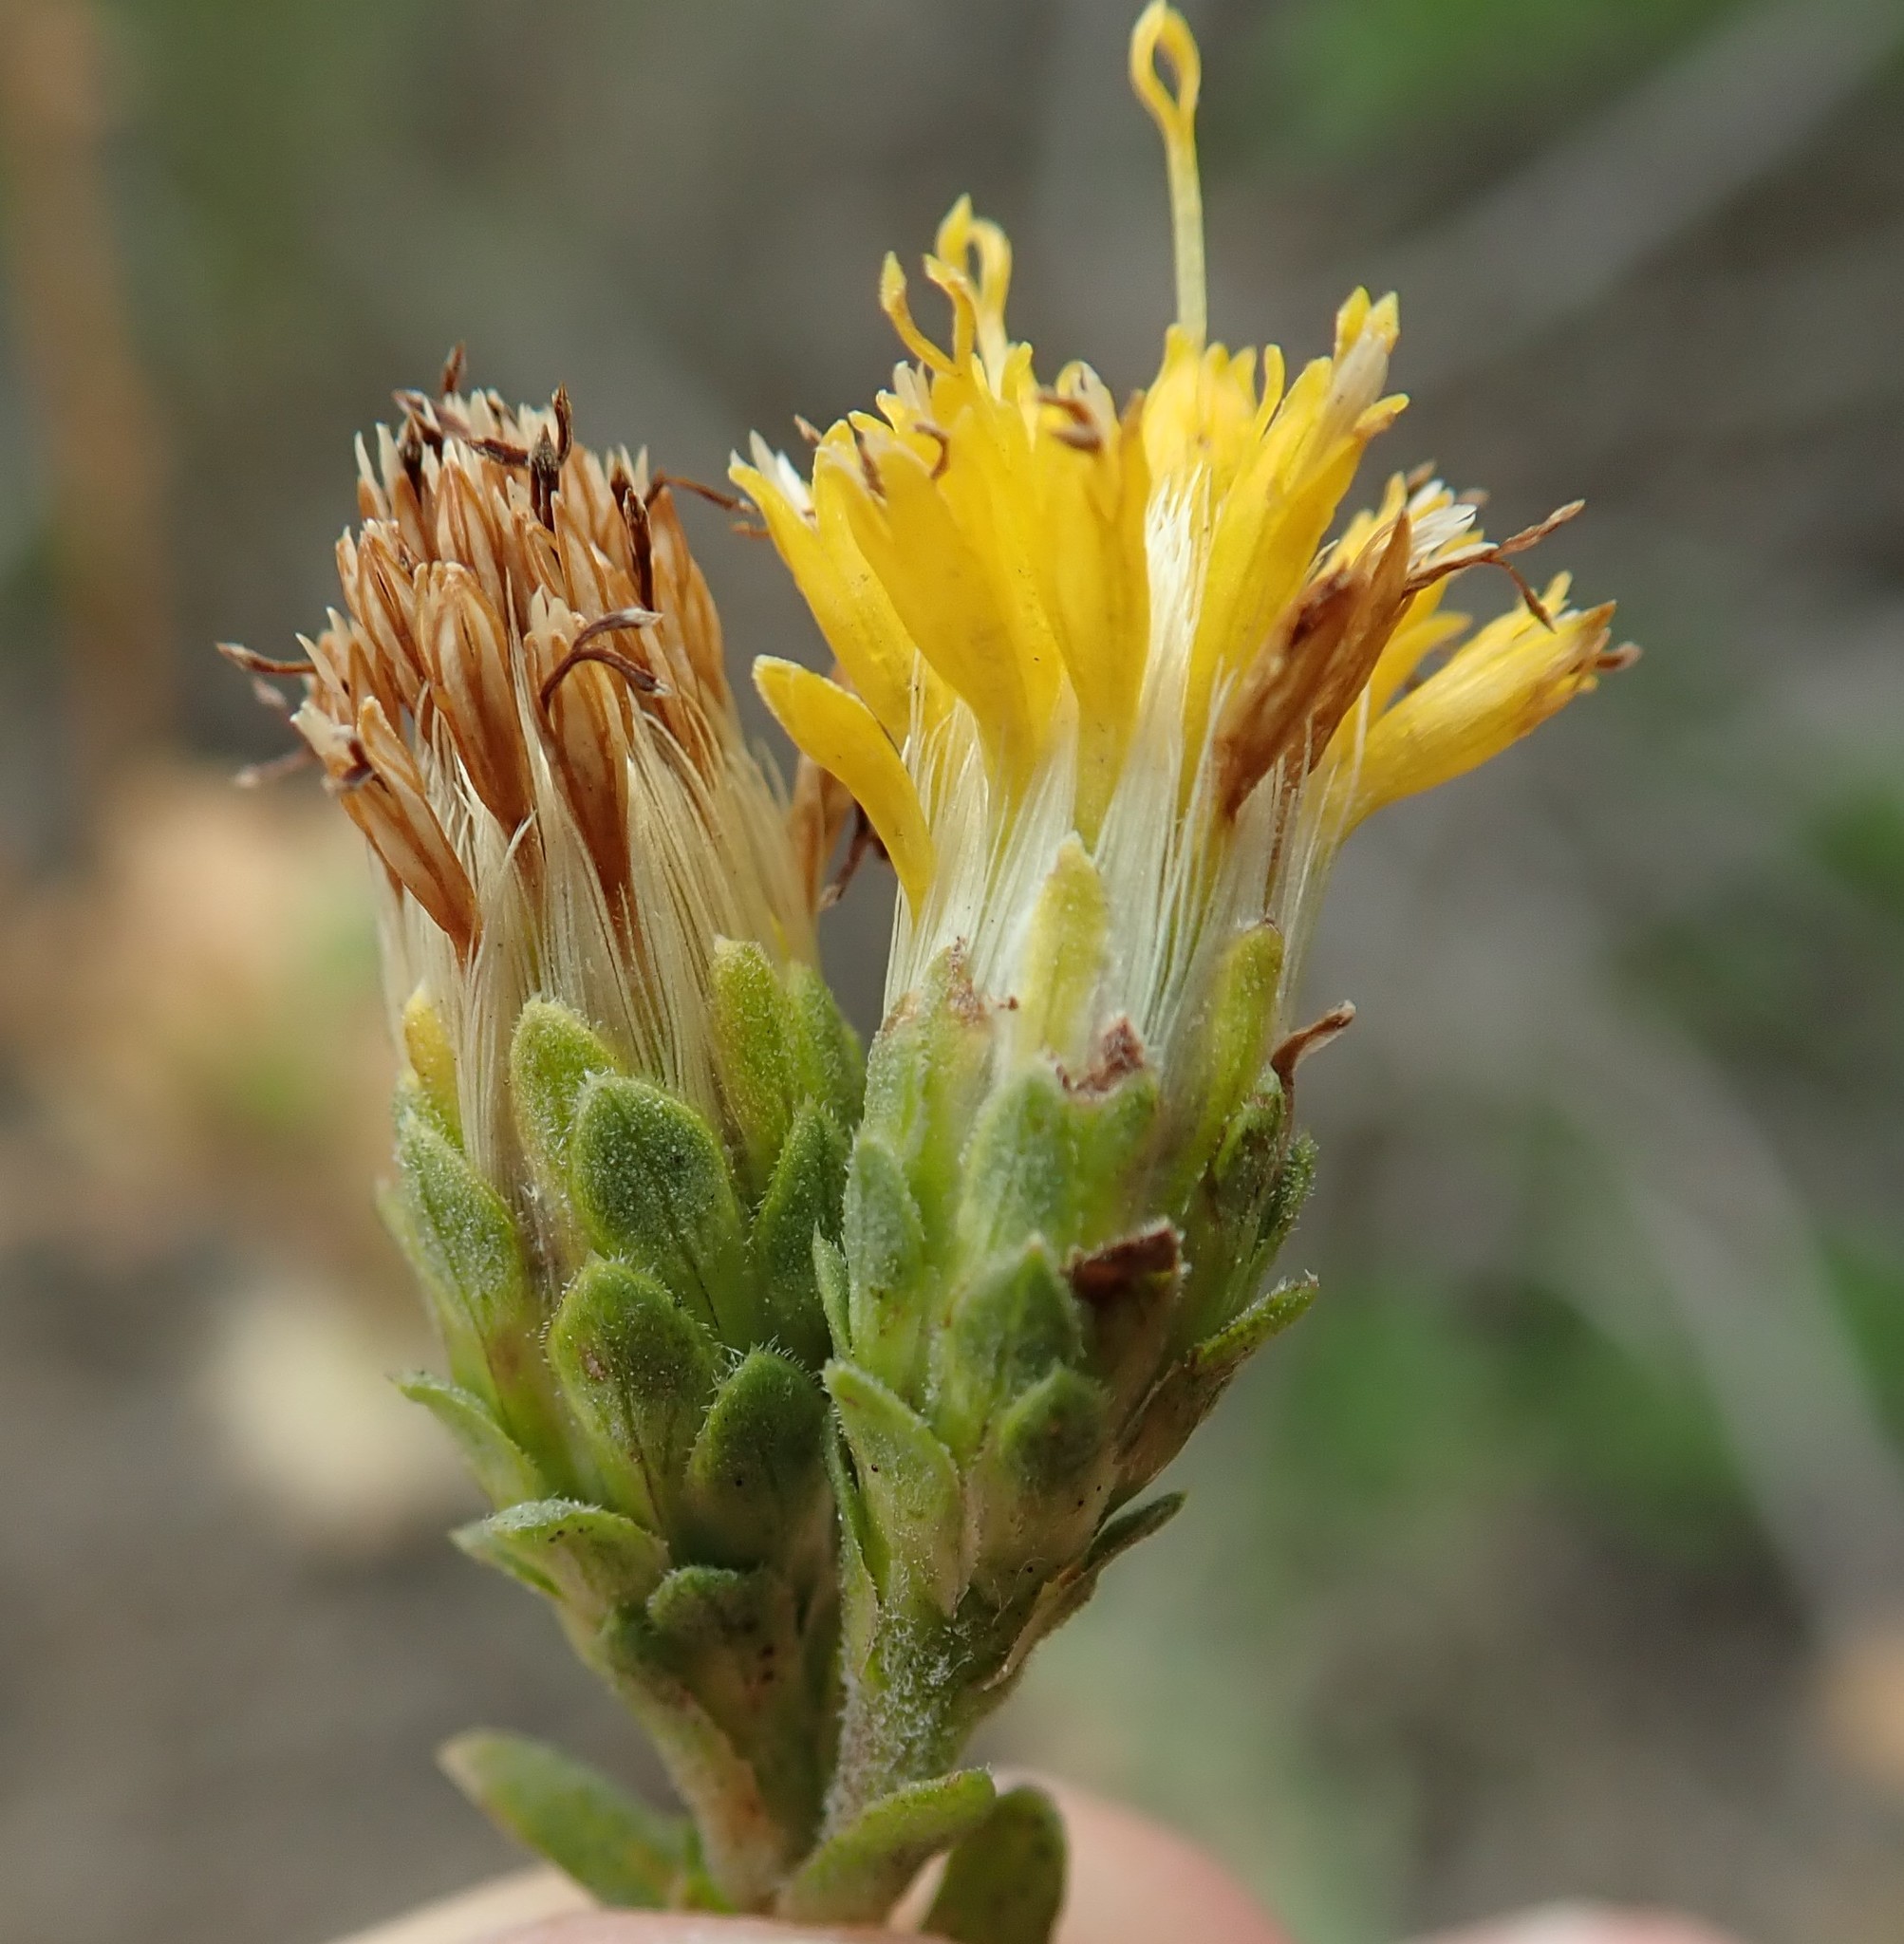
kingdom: Plantae
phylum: Tracheophyta
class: Magnoliopsida
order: Asterales
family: Asteraceae
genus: Isocoma
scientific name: Isocoma menziesii
